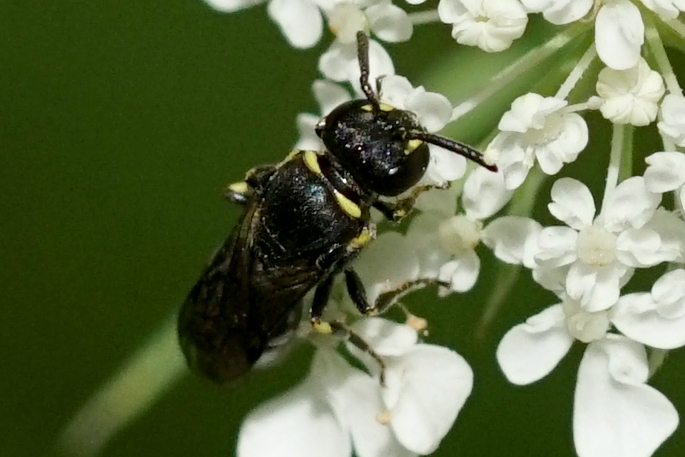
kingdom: Animalia
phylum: Arthropoda
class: Insecta
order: Hymenoptera
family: Colletidae
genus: Hylaeus
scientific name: Hylaeus modestus
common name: Yellow-faced bee
